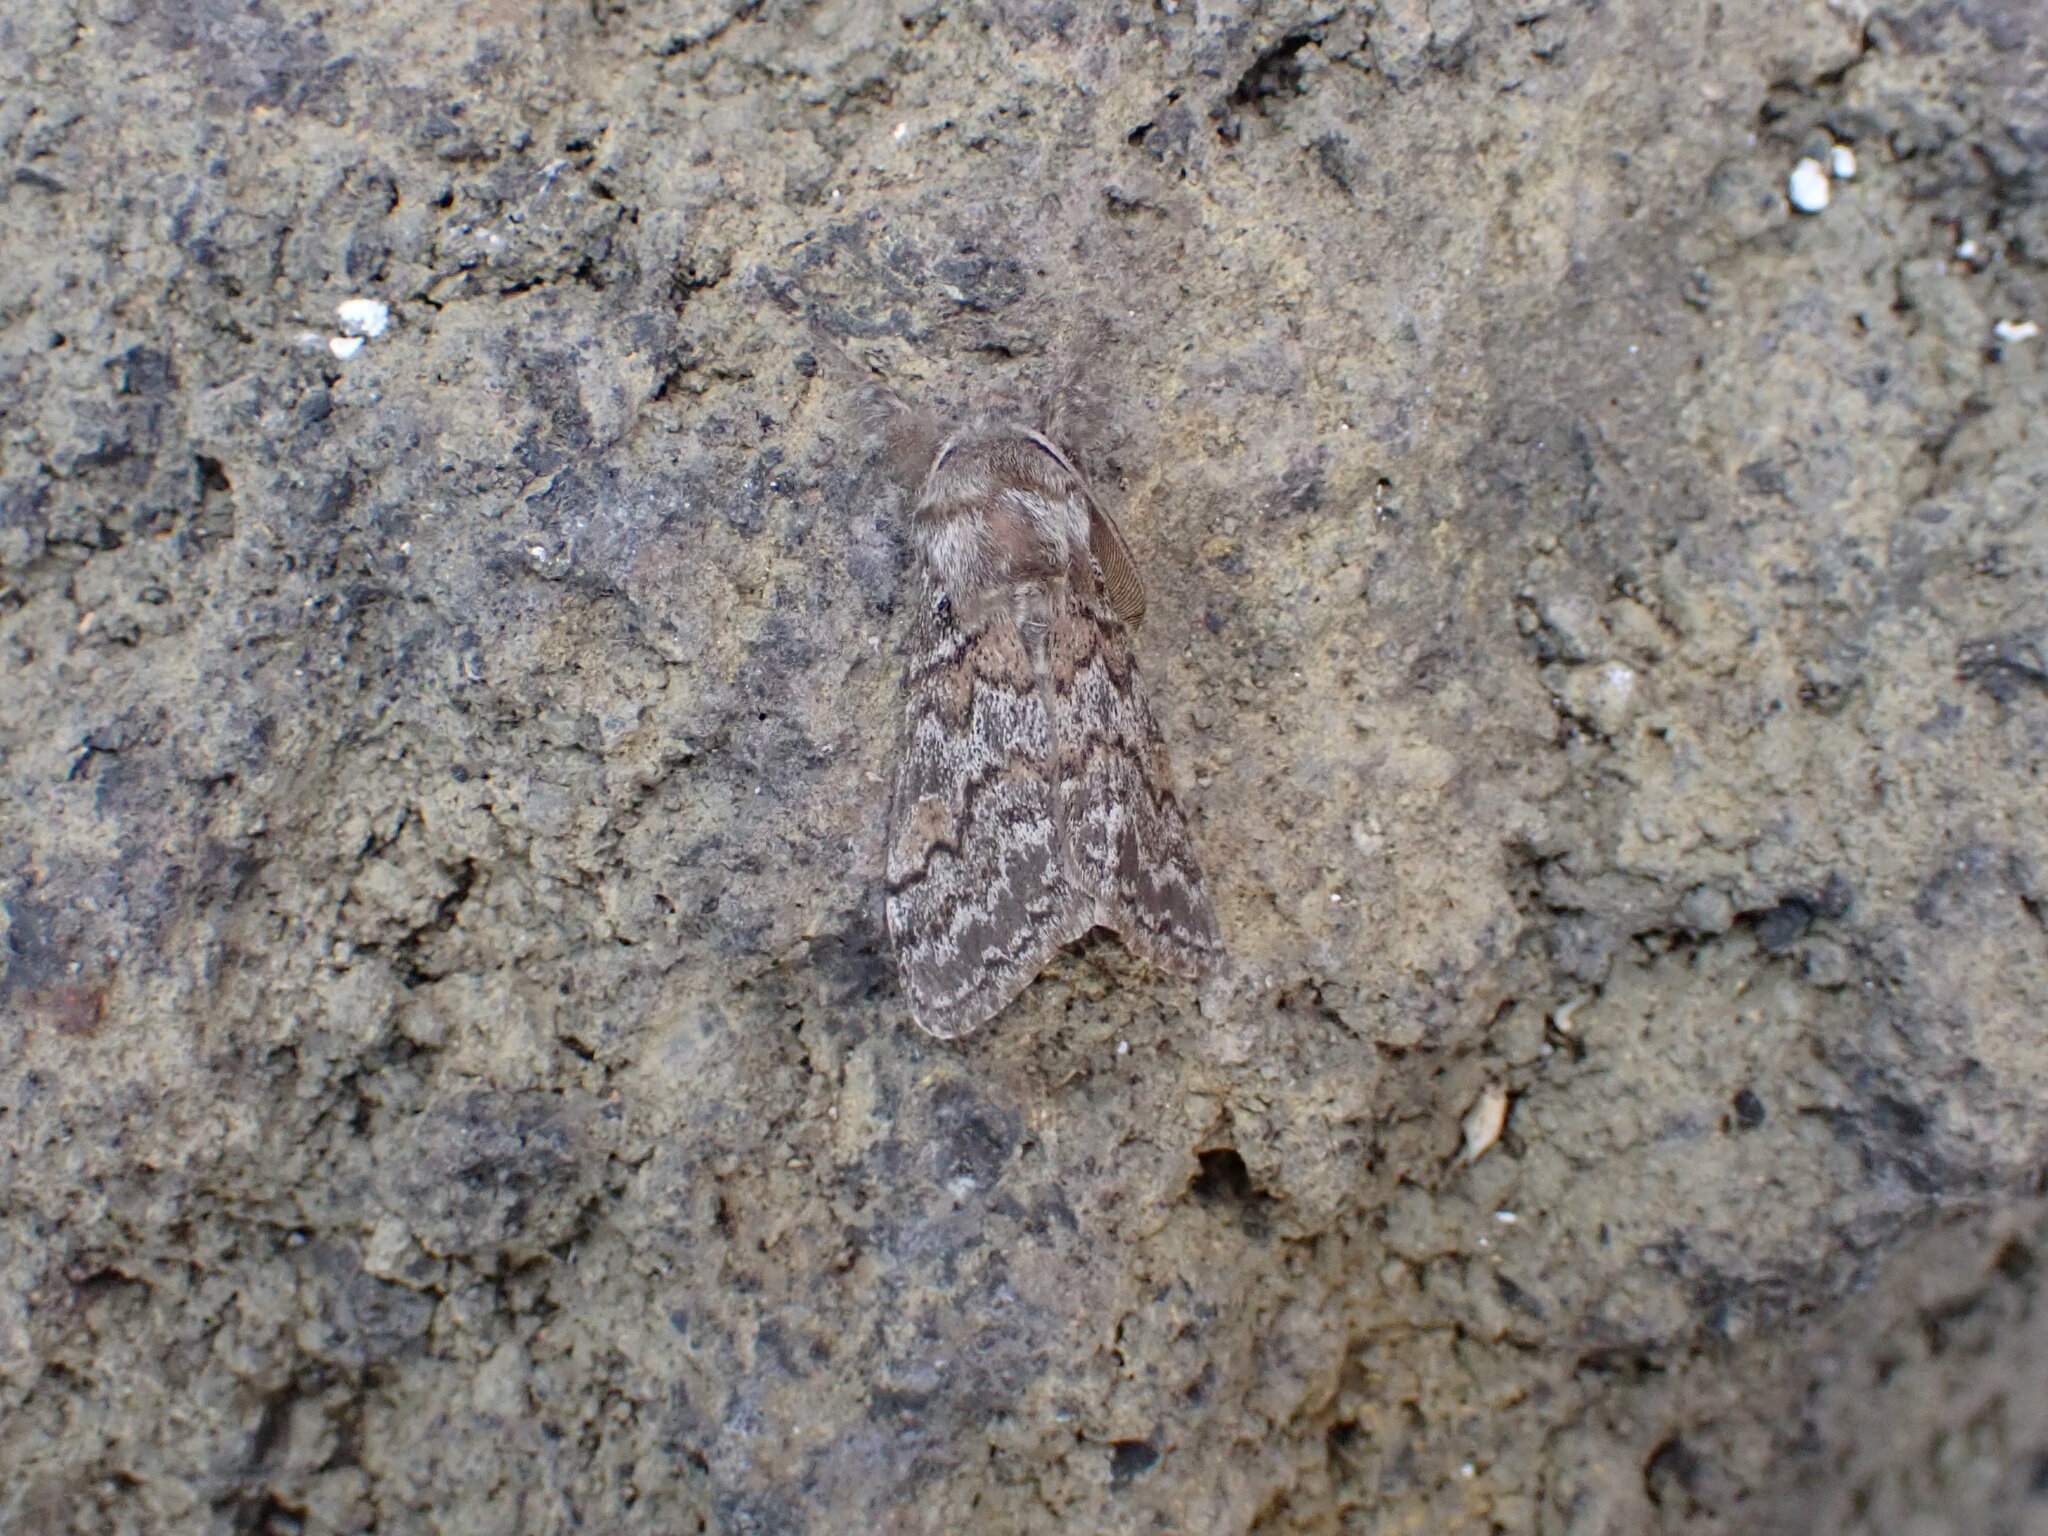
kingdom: Animalia
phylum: Arthropoda
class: Insecta
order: Lepidoptera
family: Erebidae
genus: Calliteara
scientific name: Calliteara
